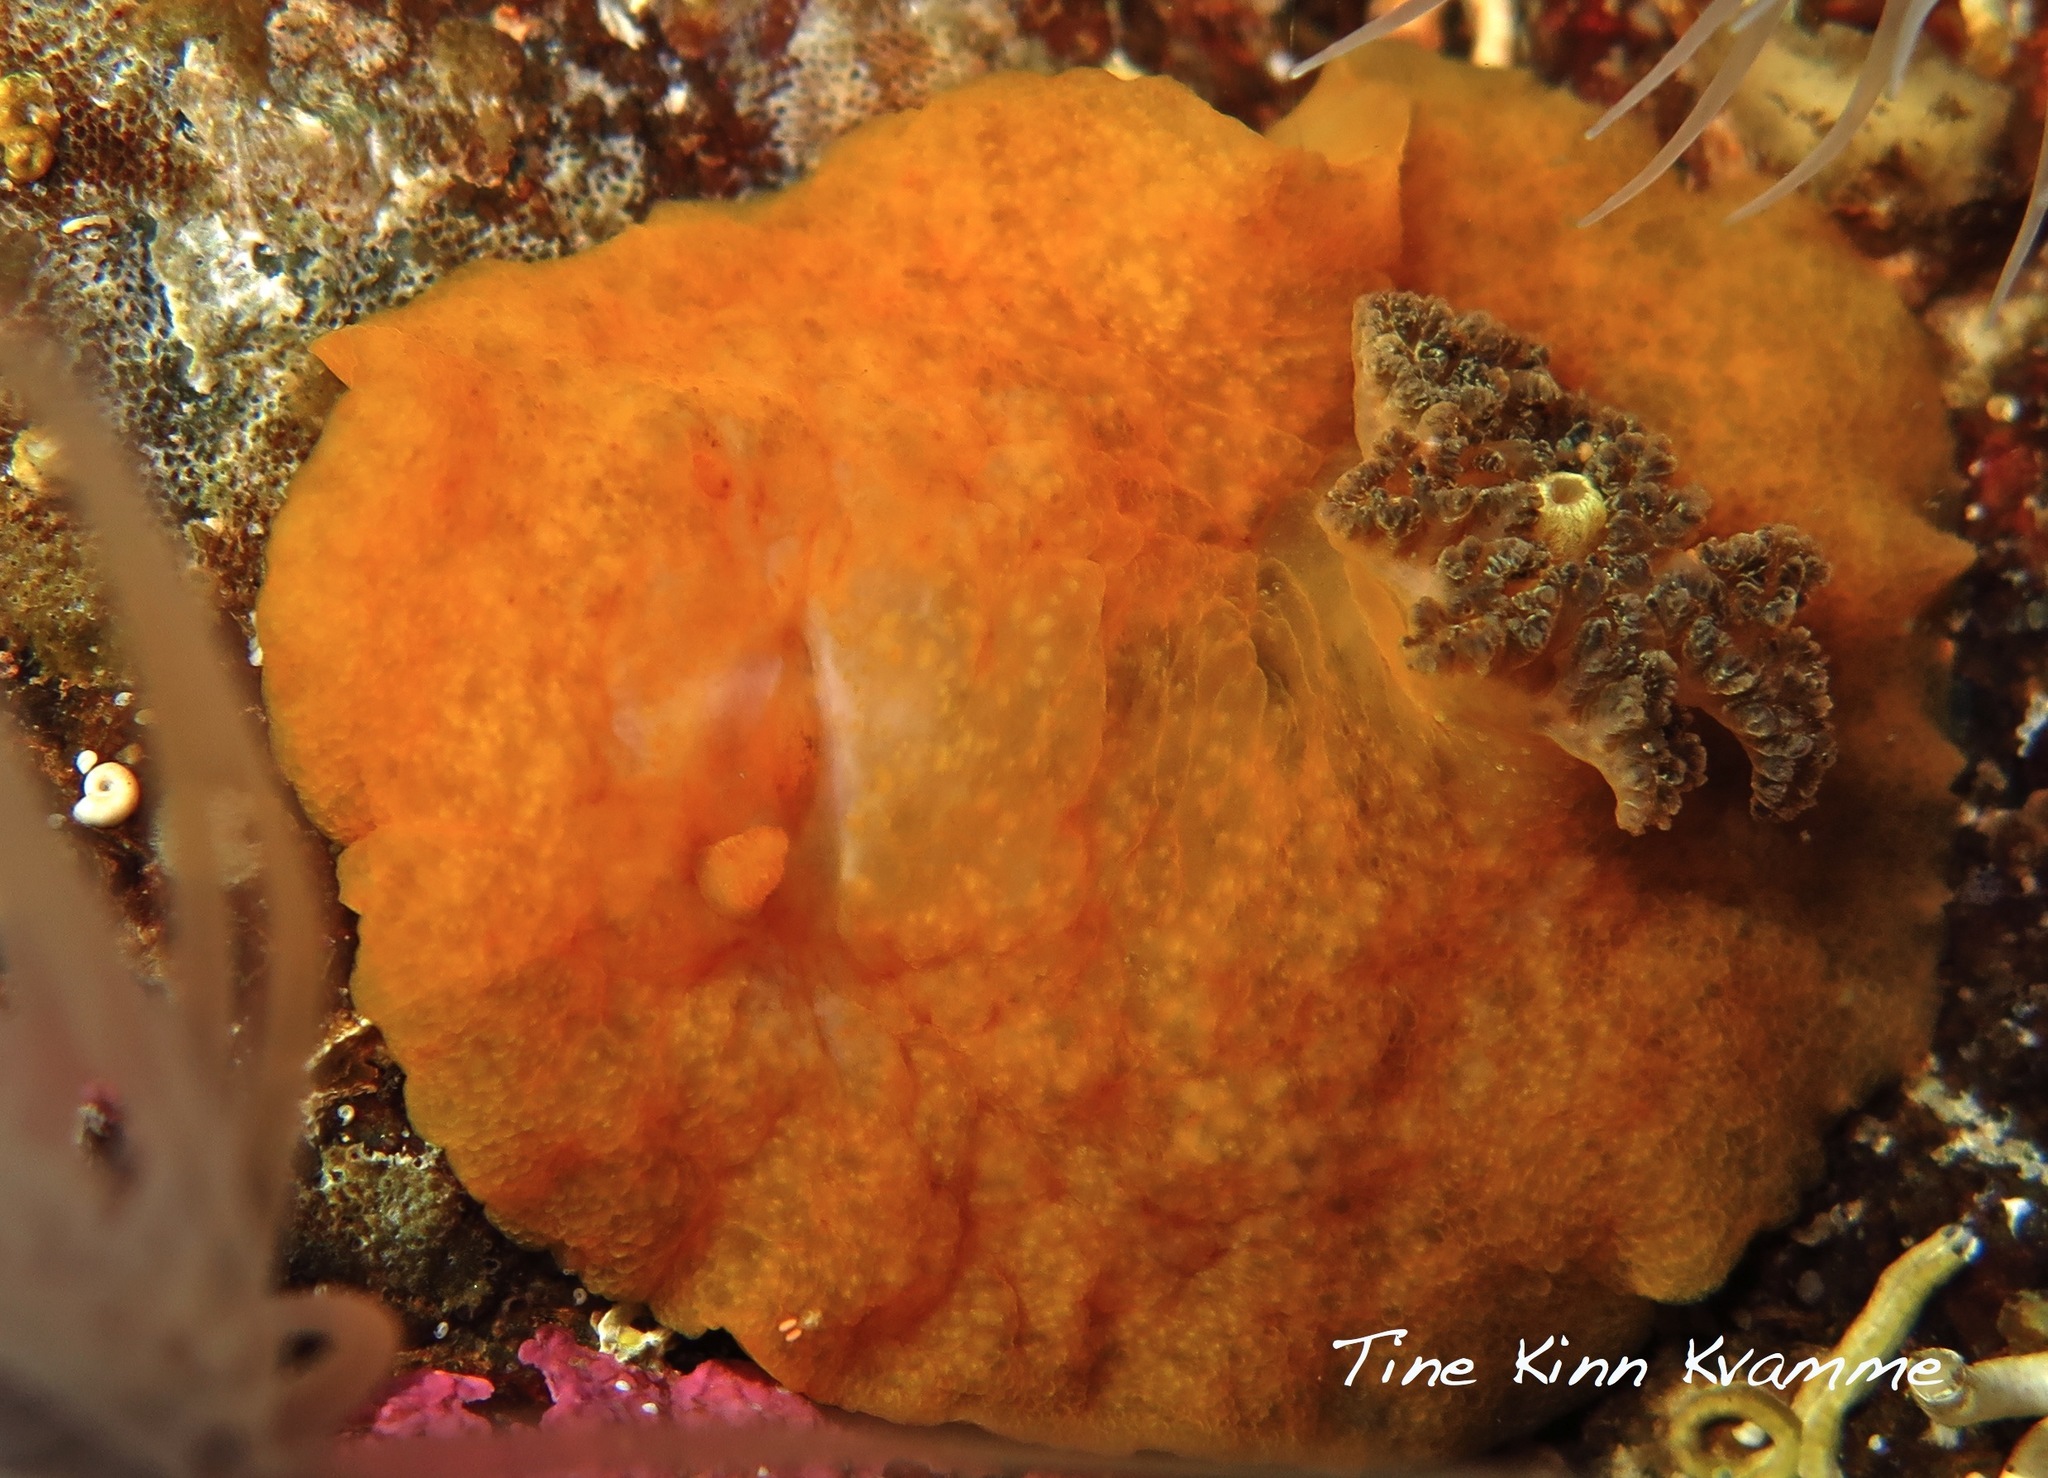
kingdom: Animalia
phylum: Mollusca
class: Gastropoda
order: Nudibranchia
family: Dorididae
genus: Doris
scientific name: Doris pseudoargus
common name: Sea lemon
